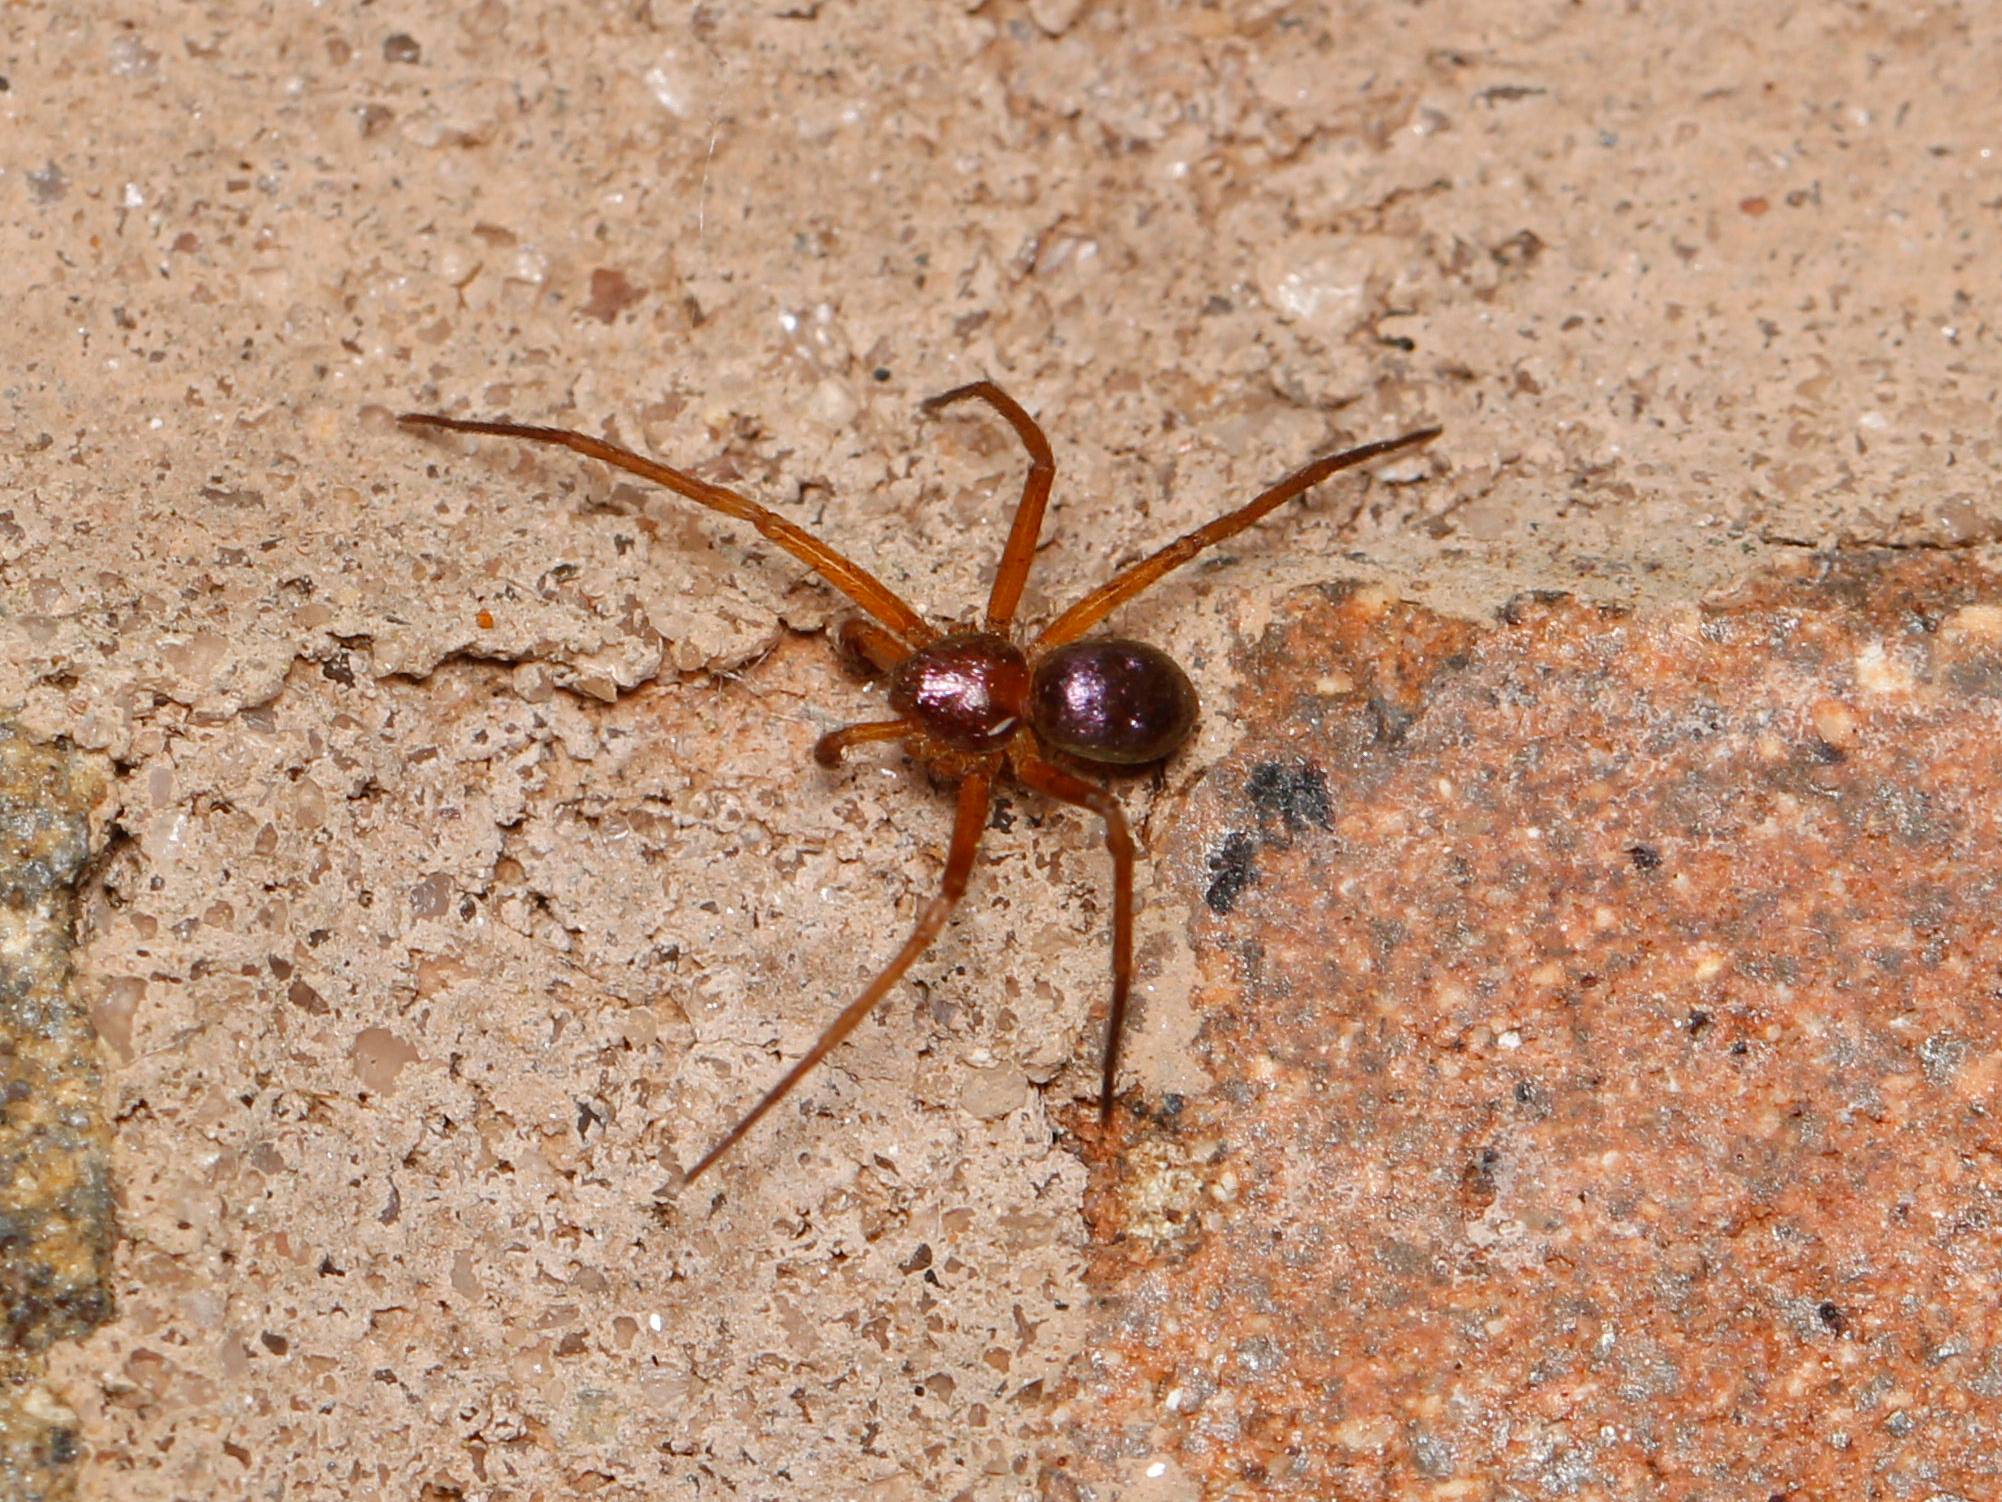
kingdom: Animalia
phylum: Arthropoda
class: Arachnida
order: Araneae
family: Philodromidae
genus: Philodromus
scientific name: Philodromus marxi
